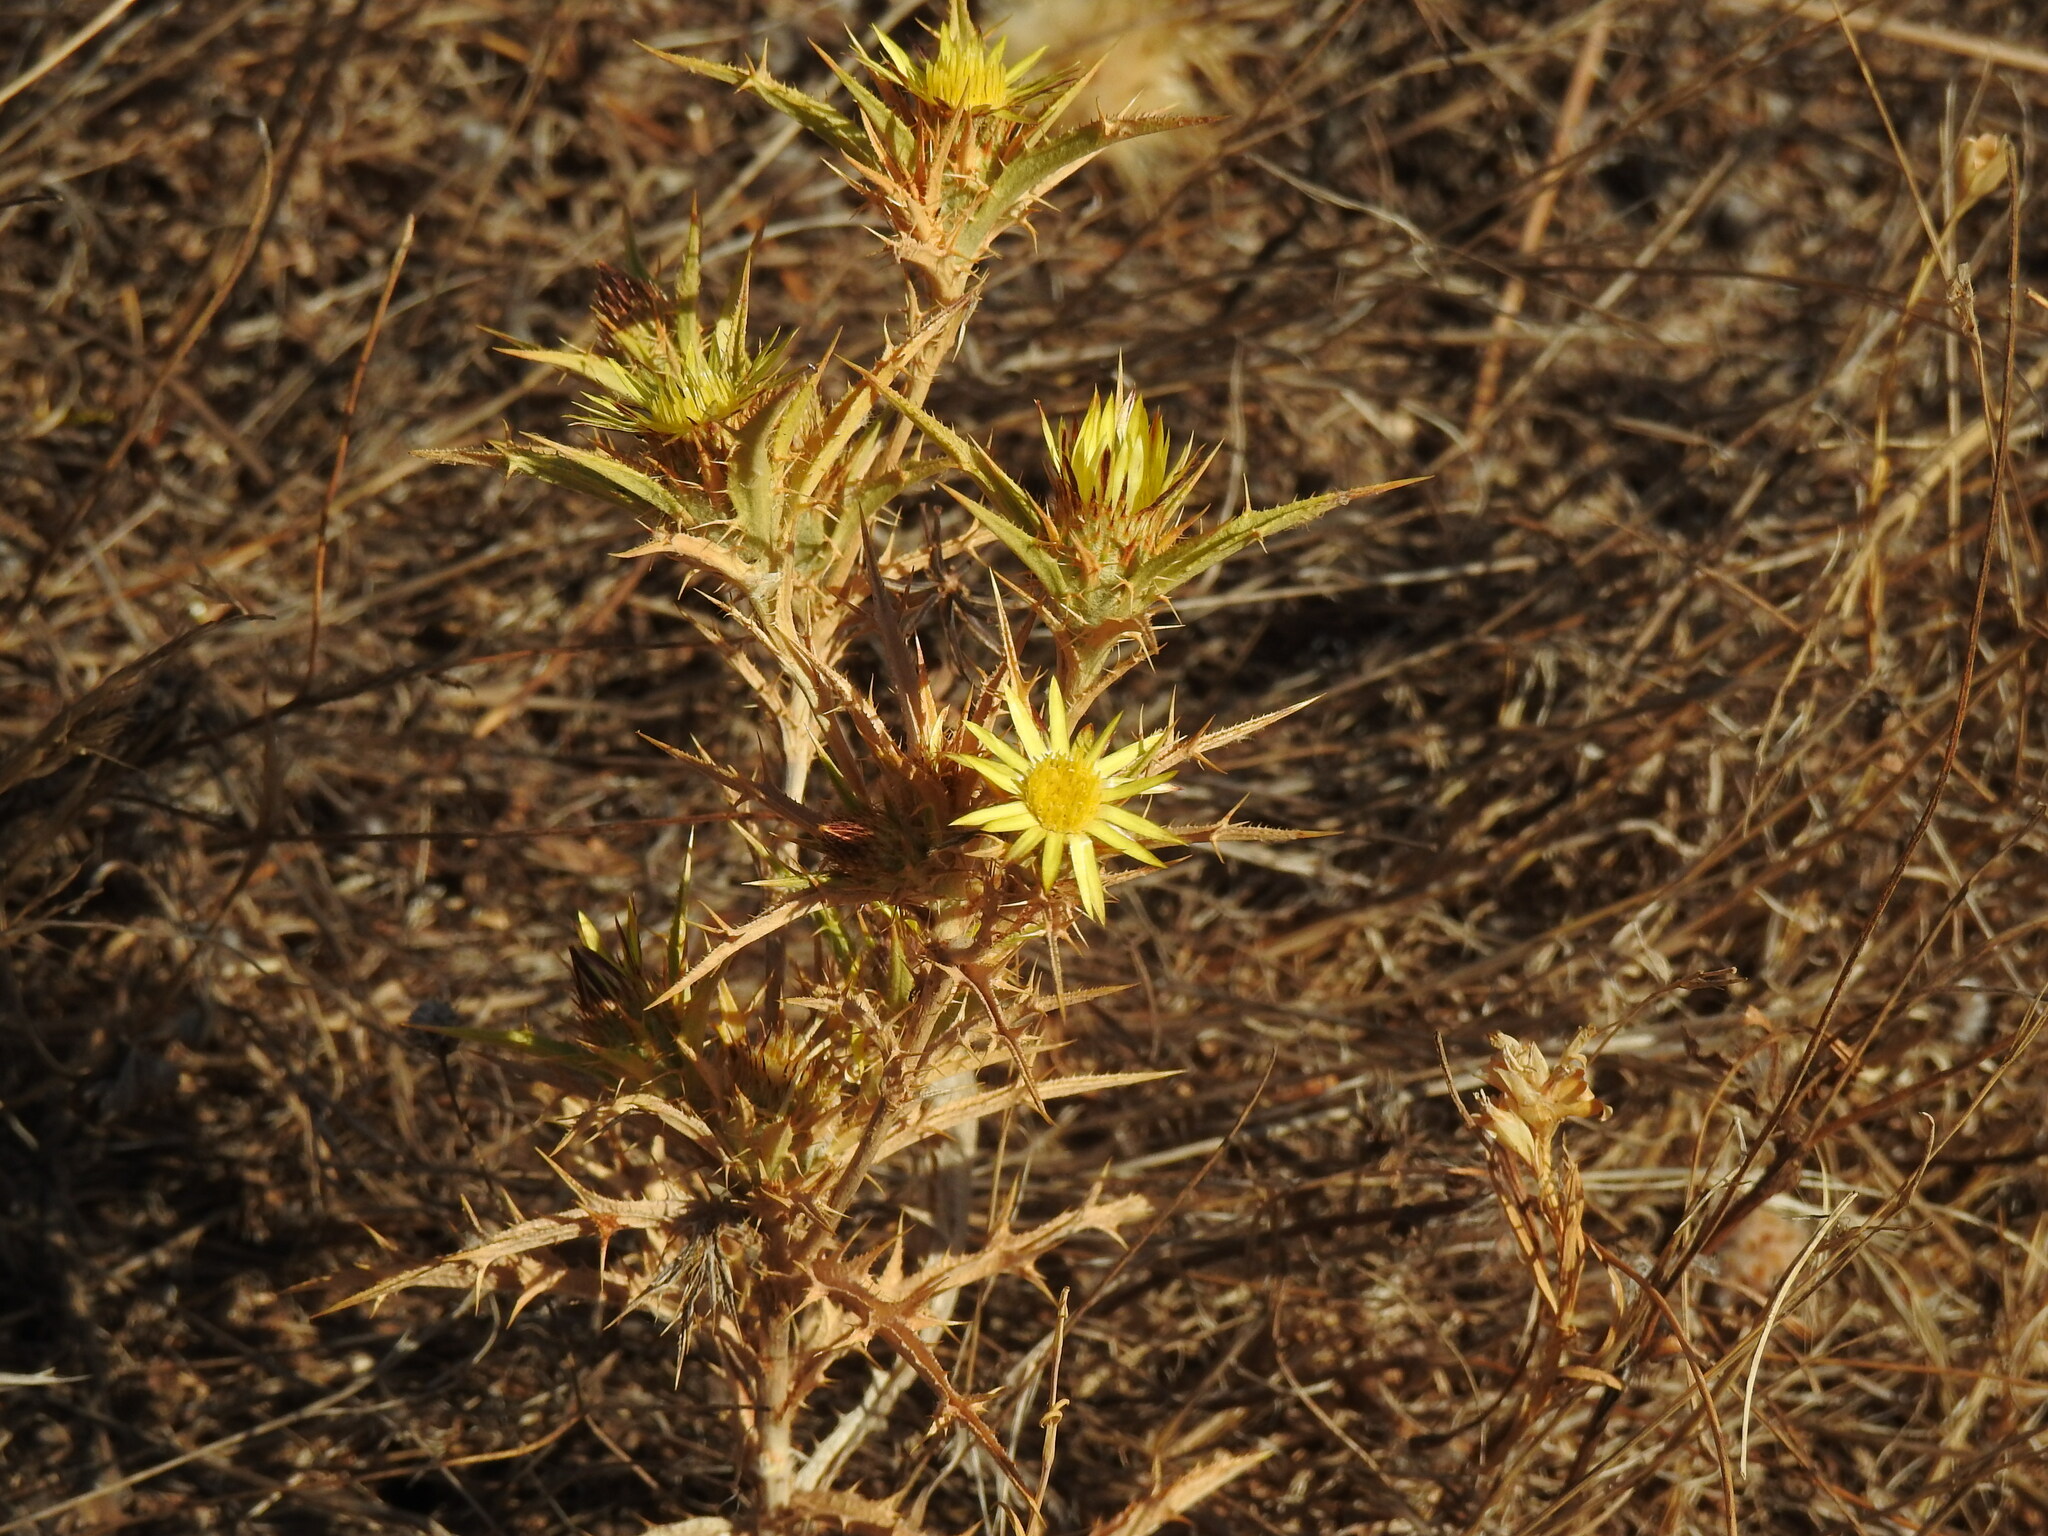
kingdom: Plantae
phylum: Tracheophyta
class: Magnoliopsida
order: Asterales
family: Asteraceae
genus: Carlina
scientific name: Carlina racemosa
